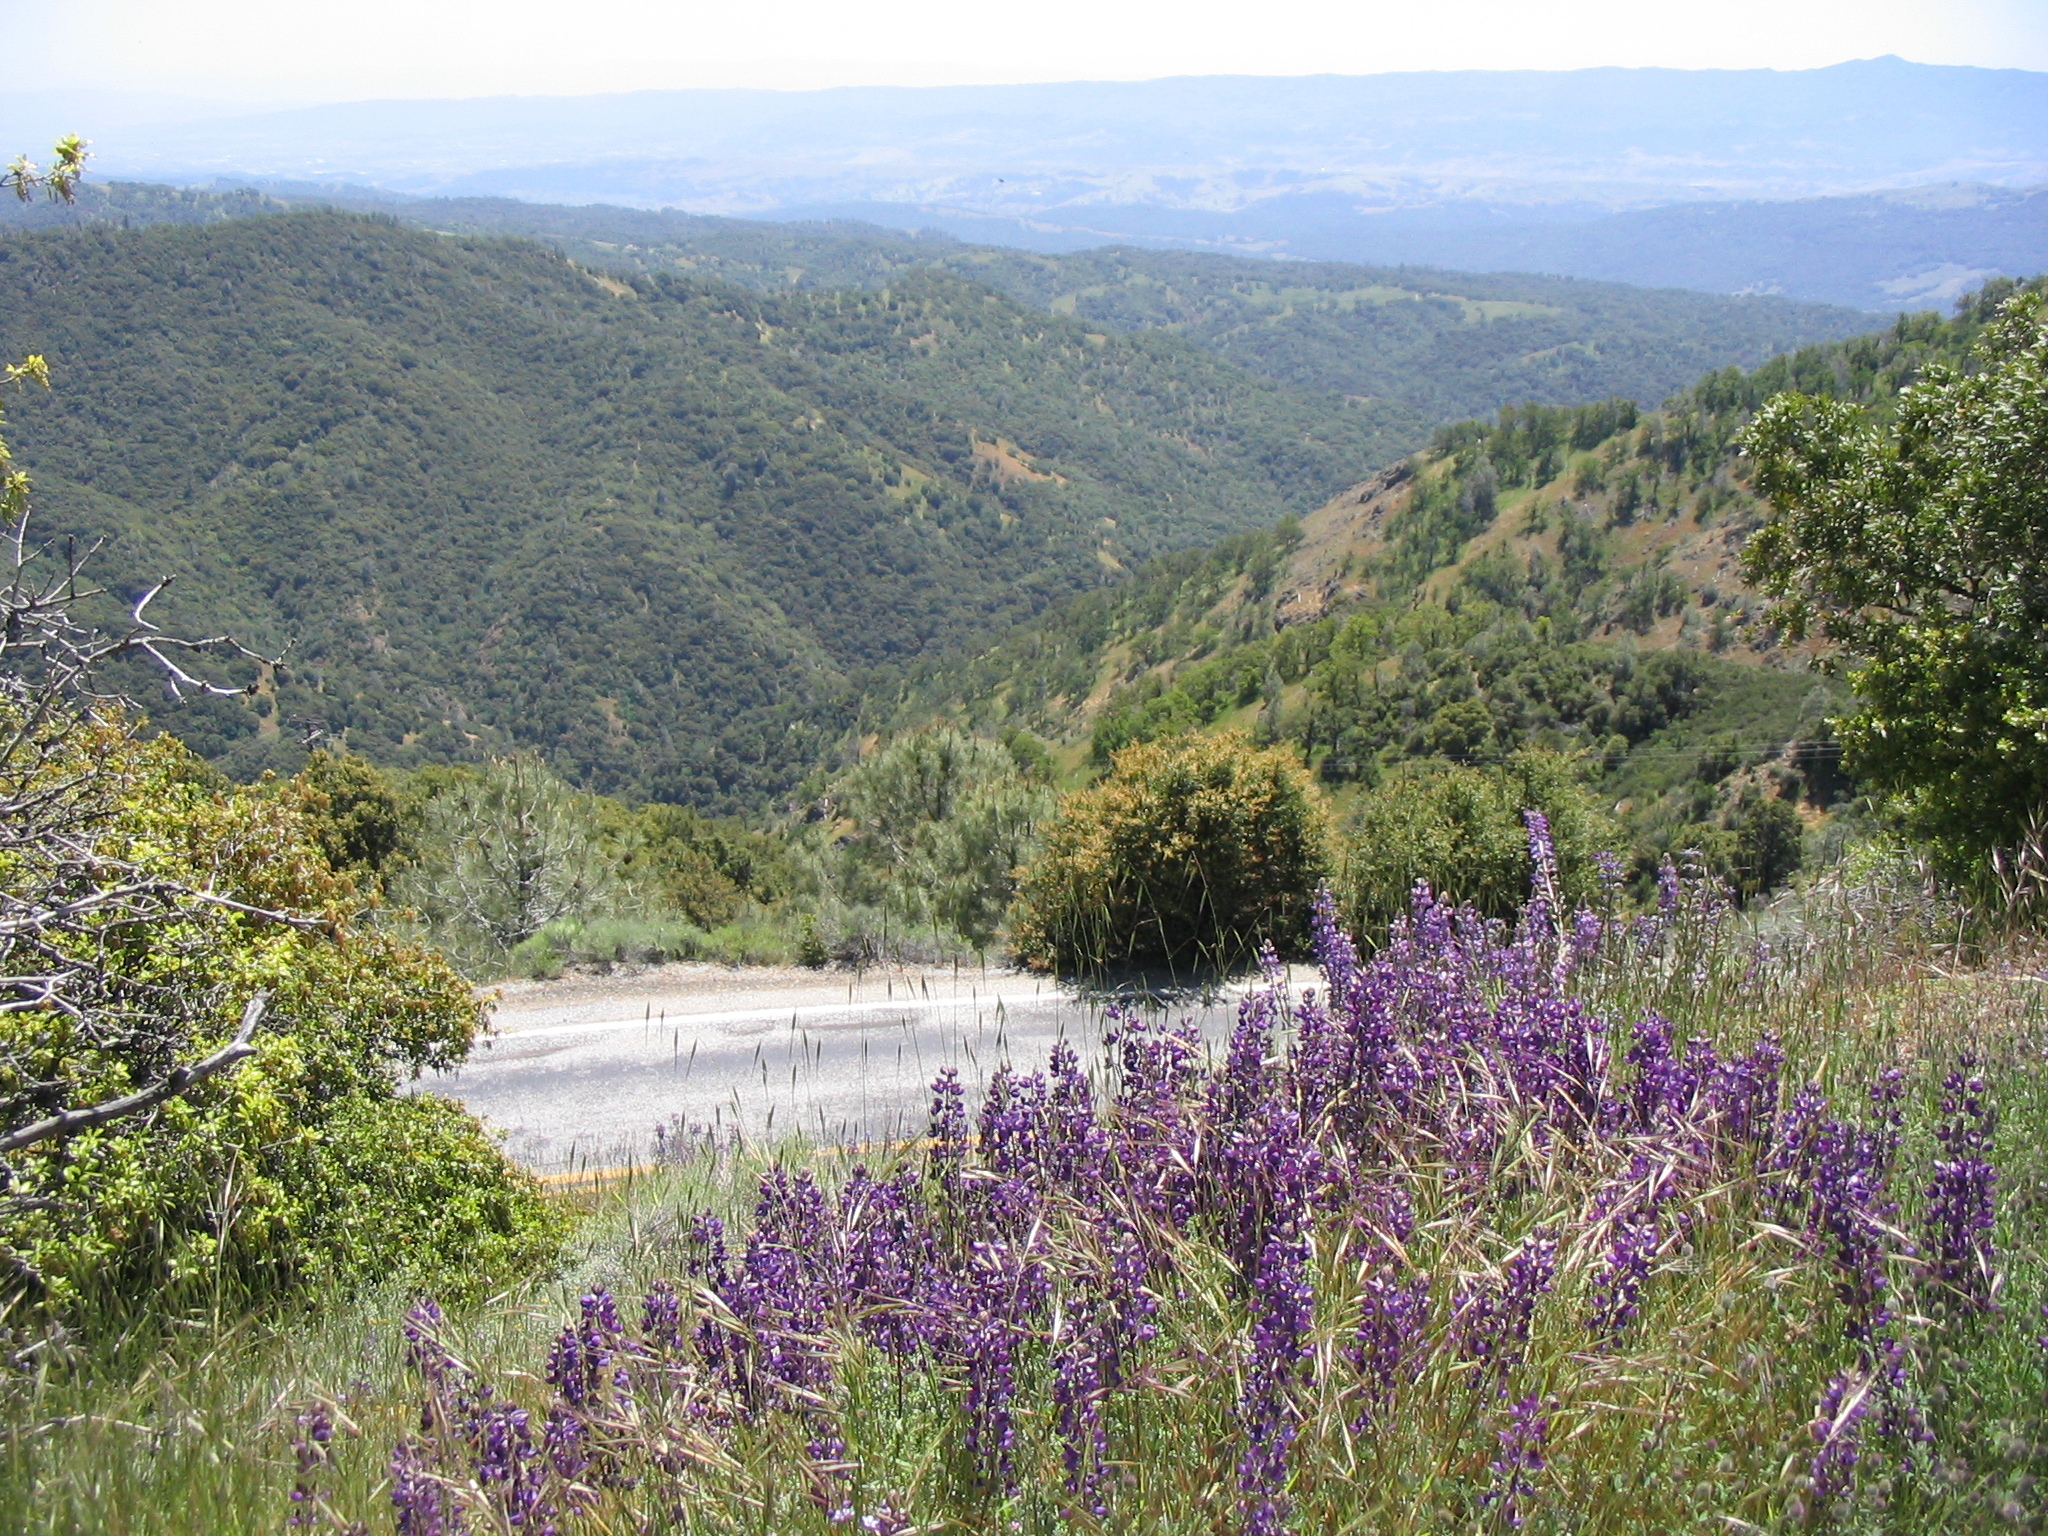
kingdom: Plantae
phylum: Tracheophyta
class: Magnoliopsida
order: Fabales
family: Fabaceae
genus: Lupinus
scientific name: Lupinus albifrons
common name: Foothill lupine
